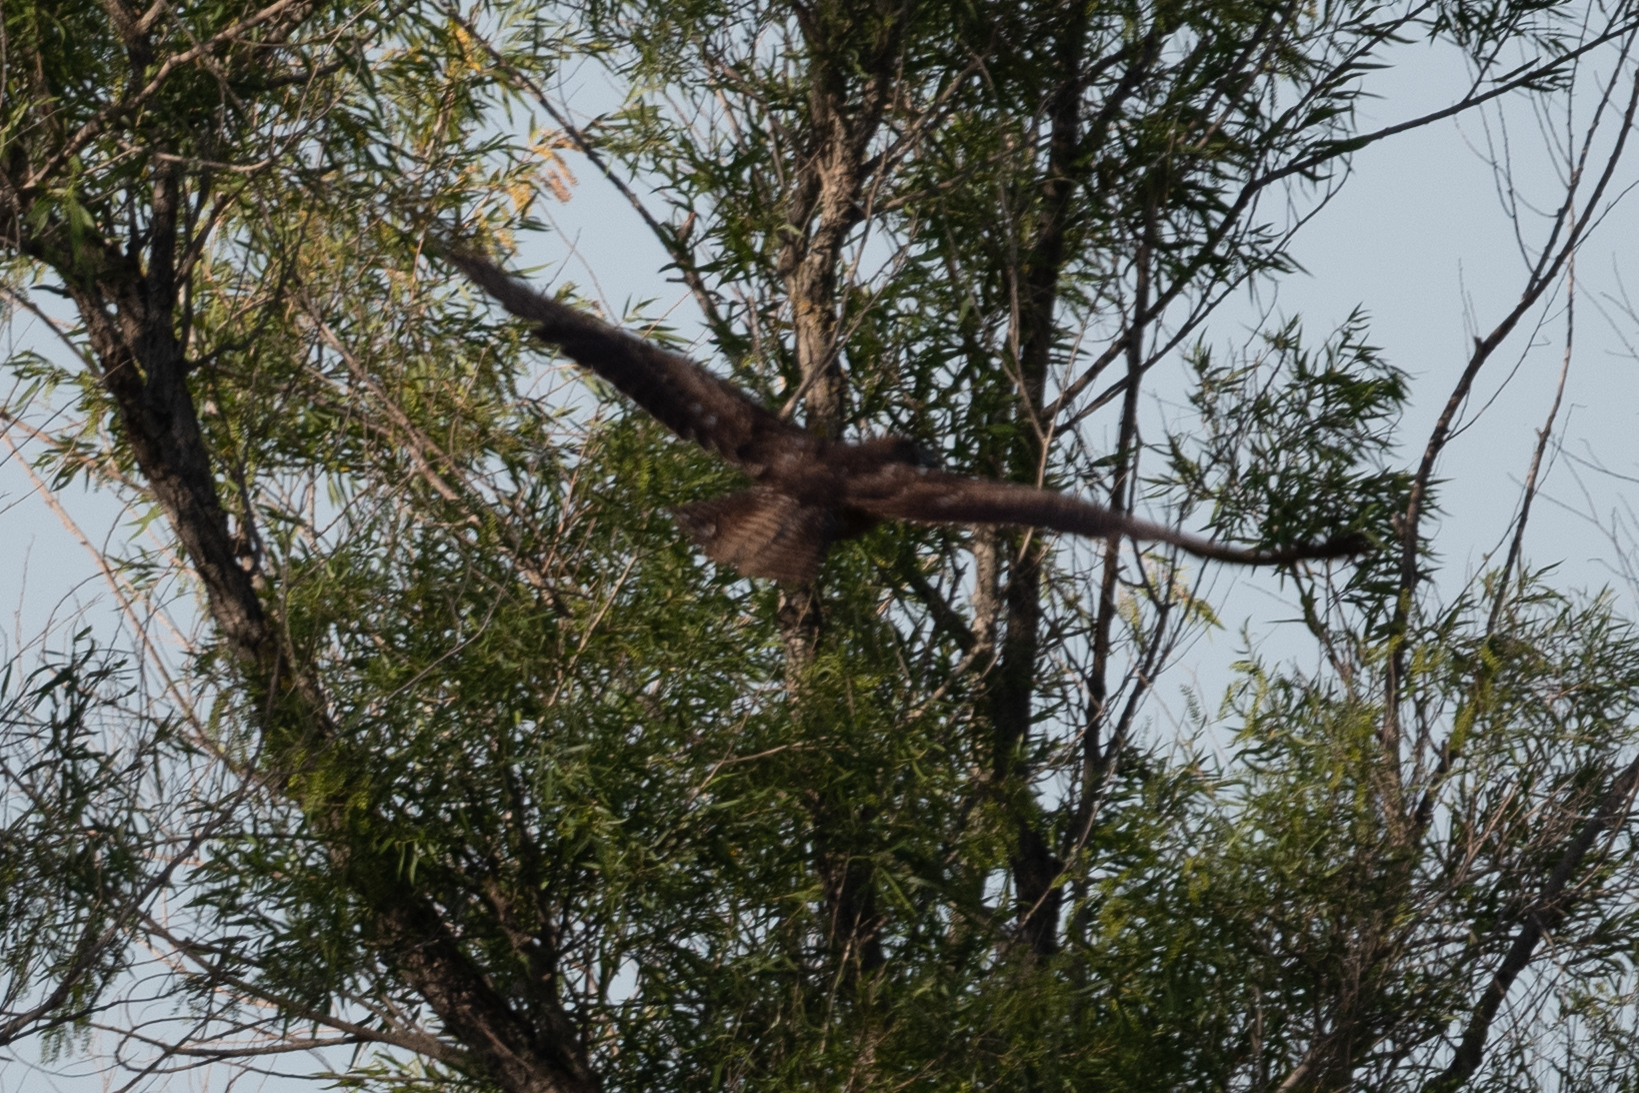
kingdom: Animalia
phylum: Chordata
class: Aves
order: Accipitriformes
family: Accipitridae
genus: Buteo
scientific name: Buteo jamaicensis
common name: Red-tailed hawk
